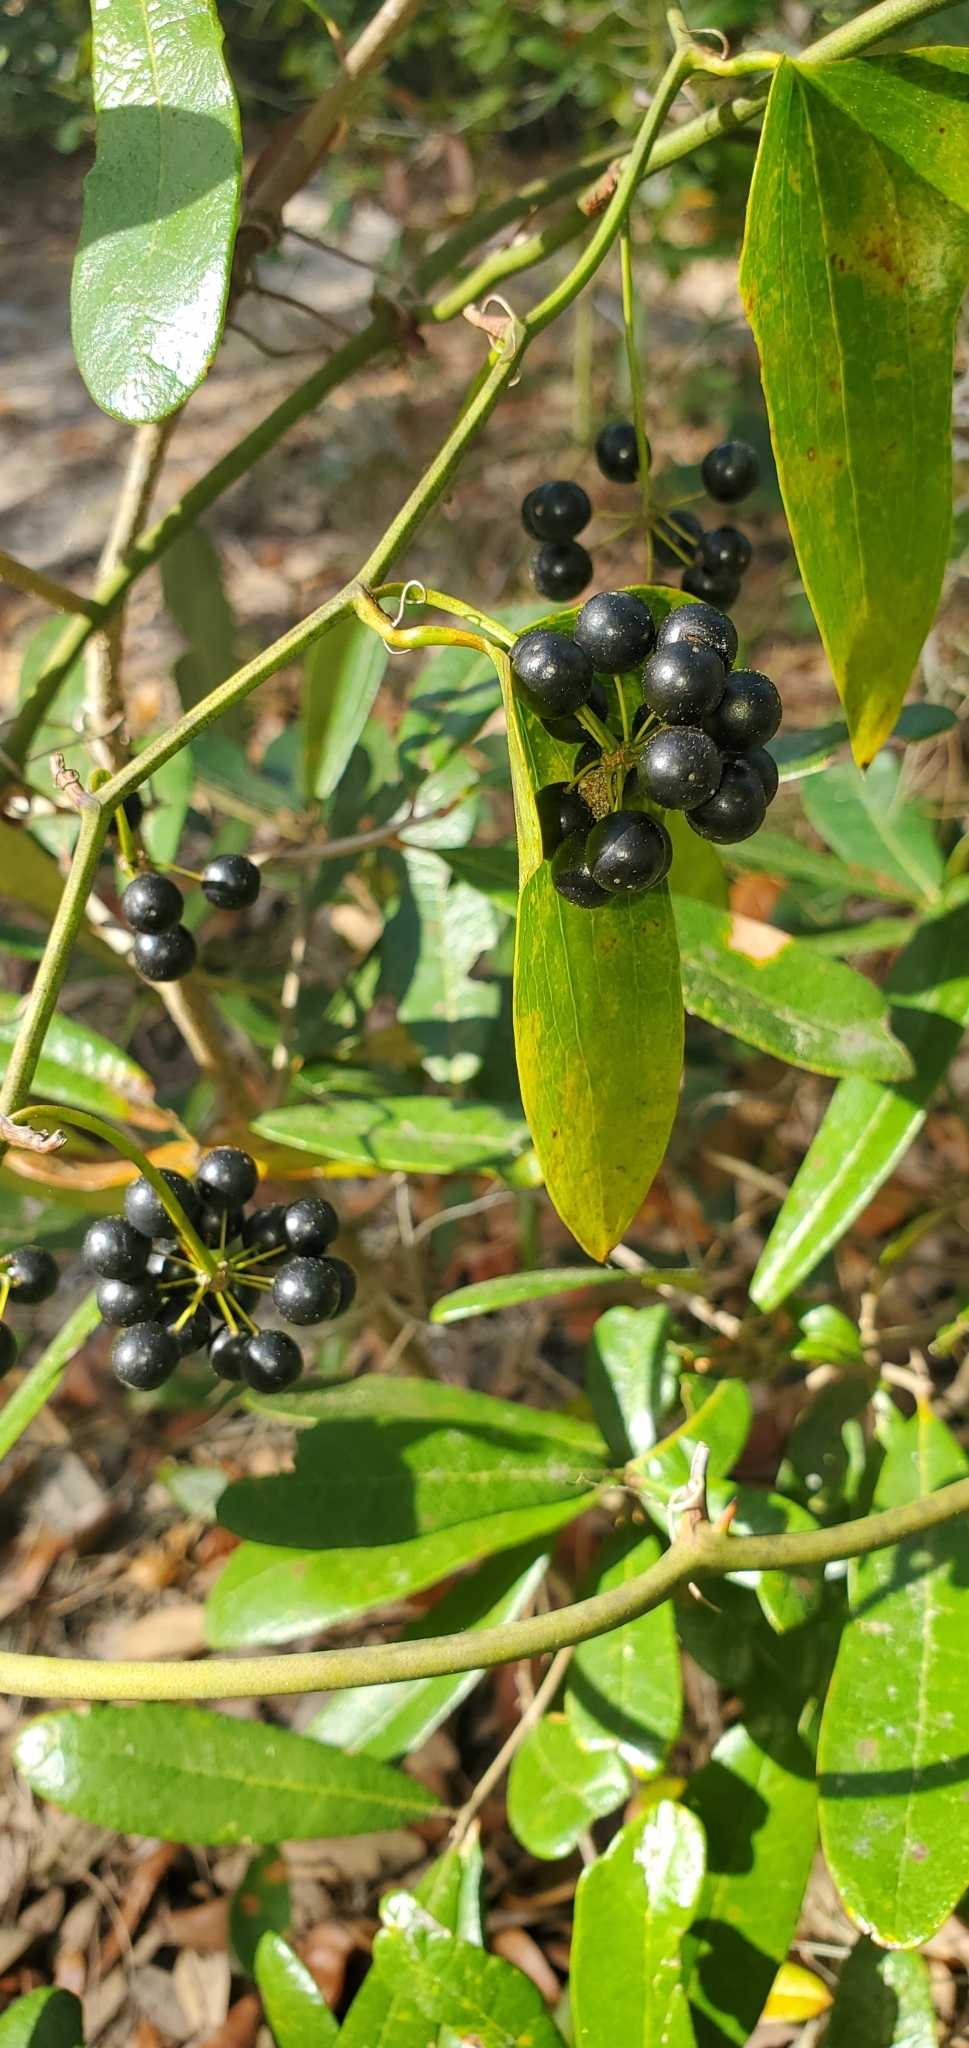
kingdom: Plantae
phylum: Tracheophyta
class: Liliopsida
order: Liliales
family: Smilacaceae
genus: Smilax
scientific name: Smilax auriculata
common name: Wild bamboo
